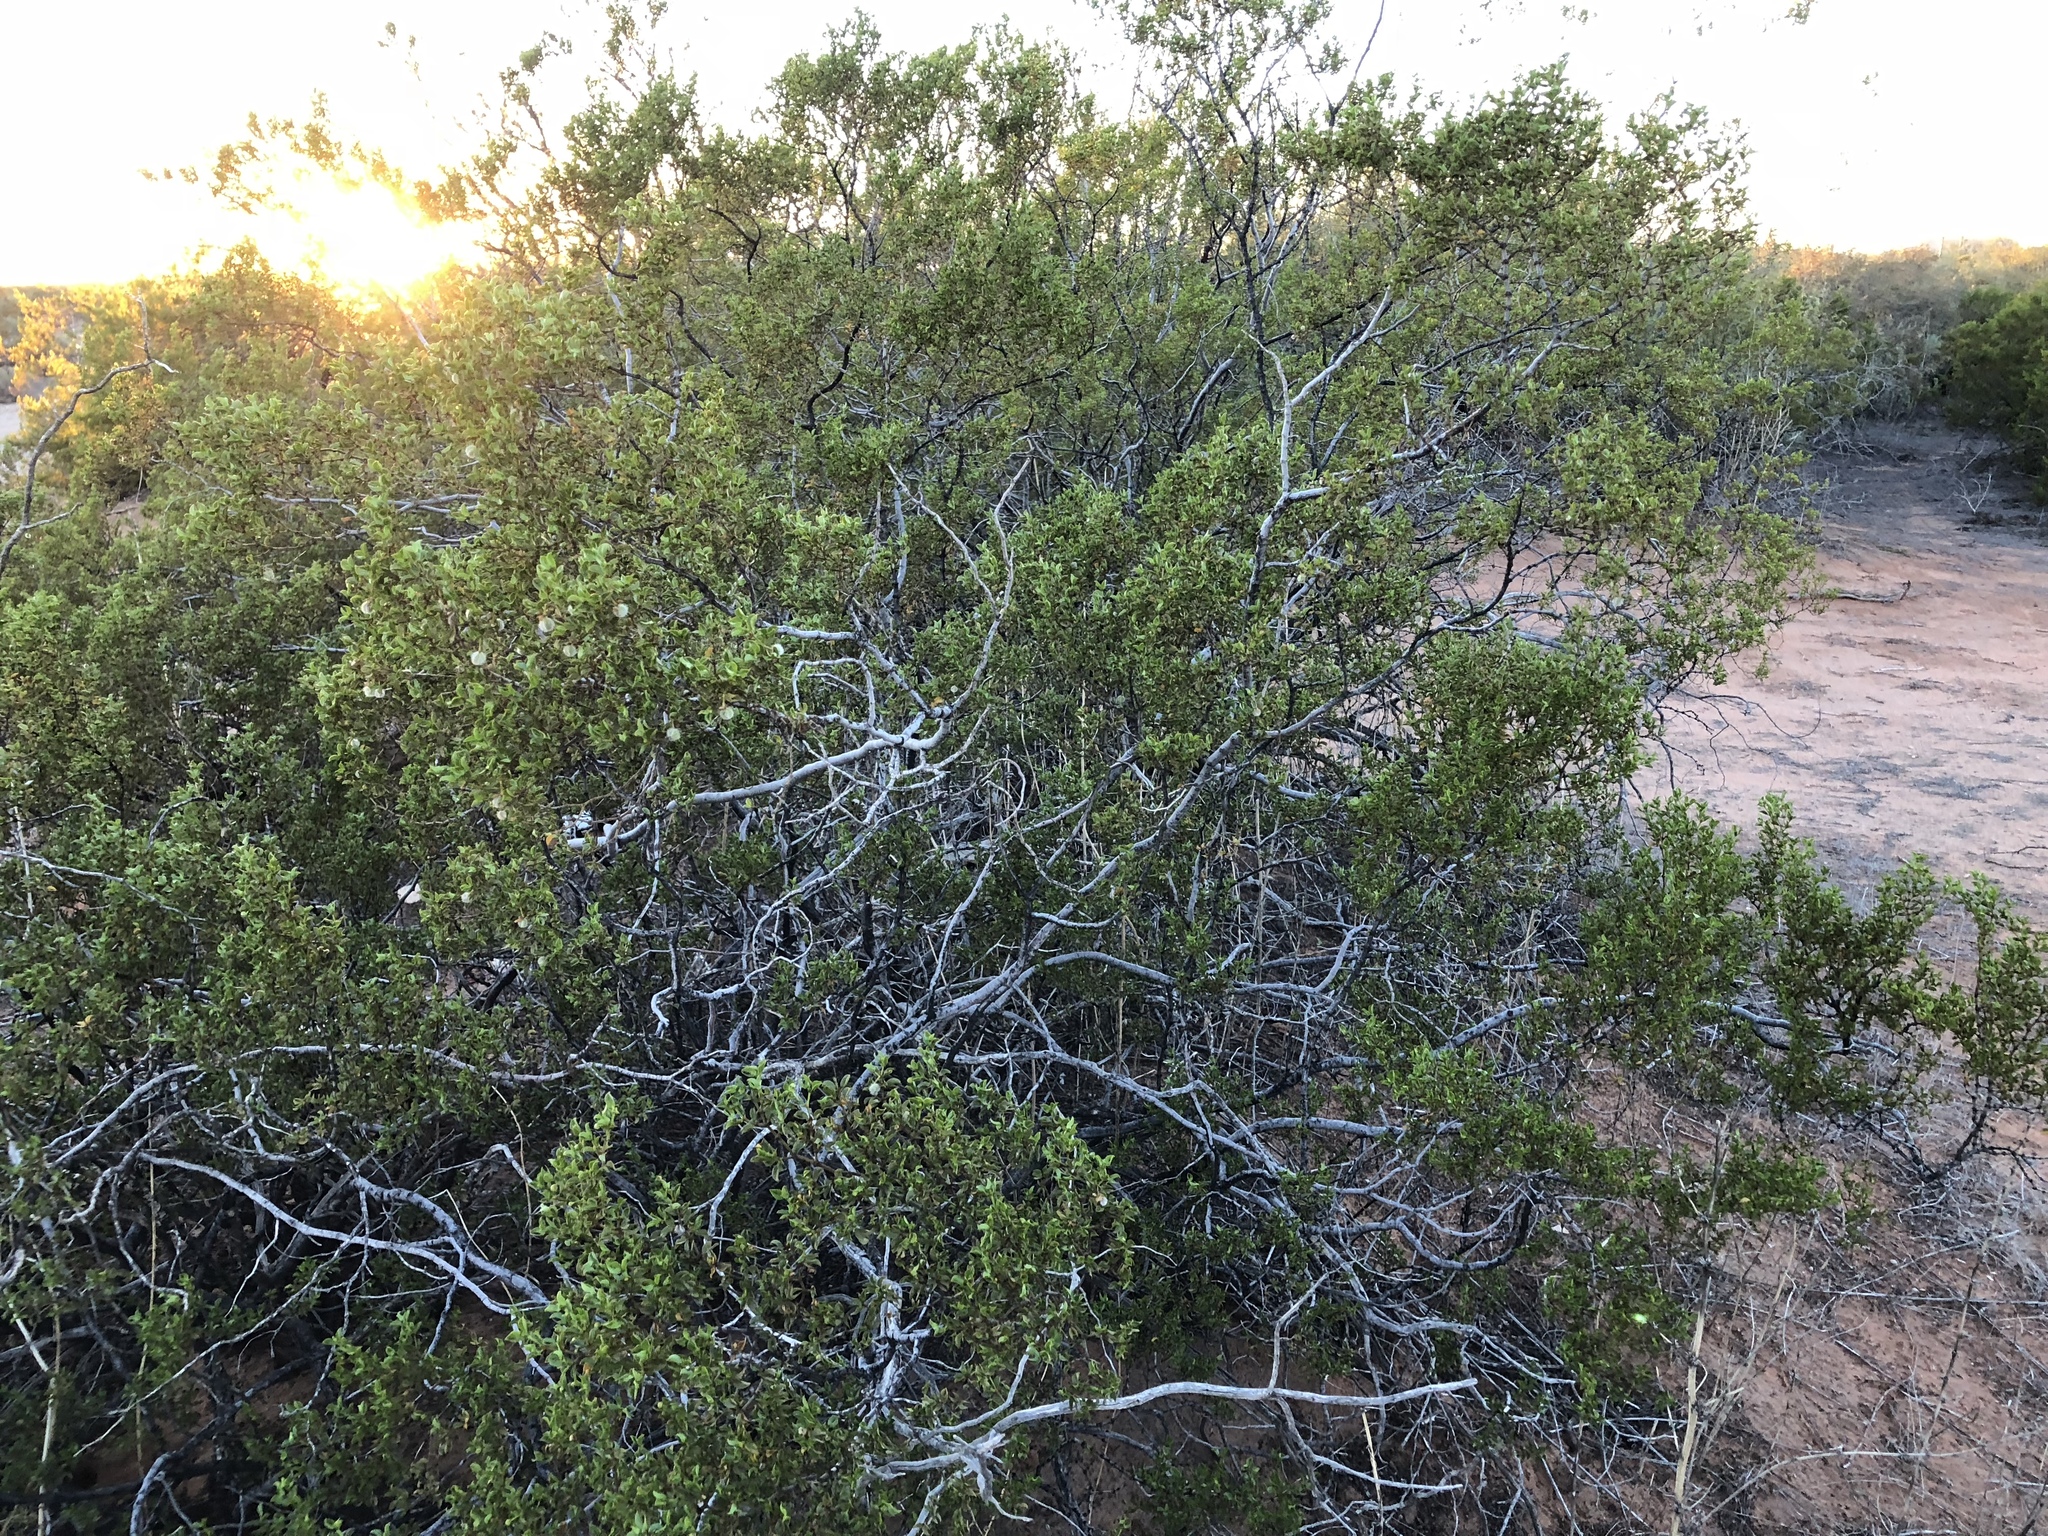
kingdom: Plantae
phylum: Tracheophyta
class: Magnoliopsida
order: Zygophyllales
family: Zygophyllaceae
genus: Larrea
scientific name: Larrea tridentata
